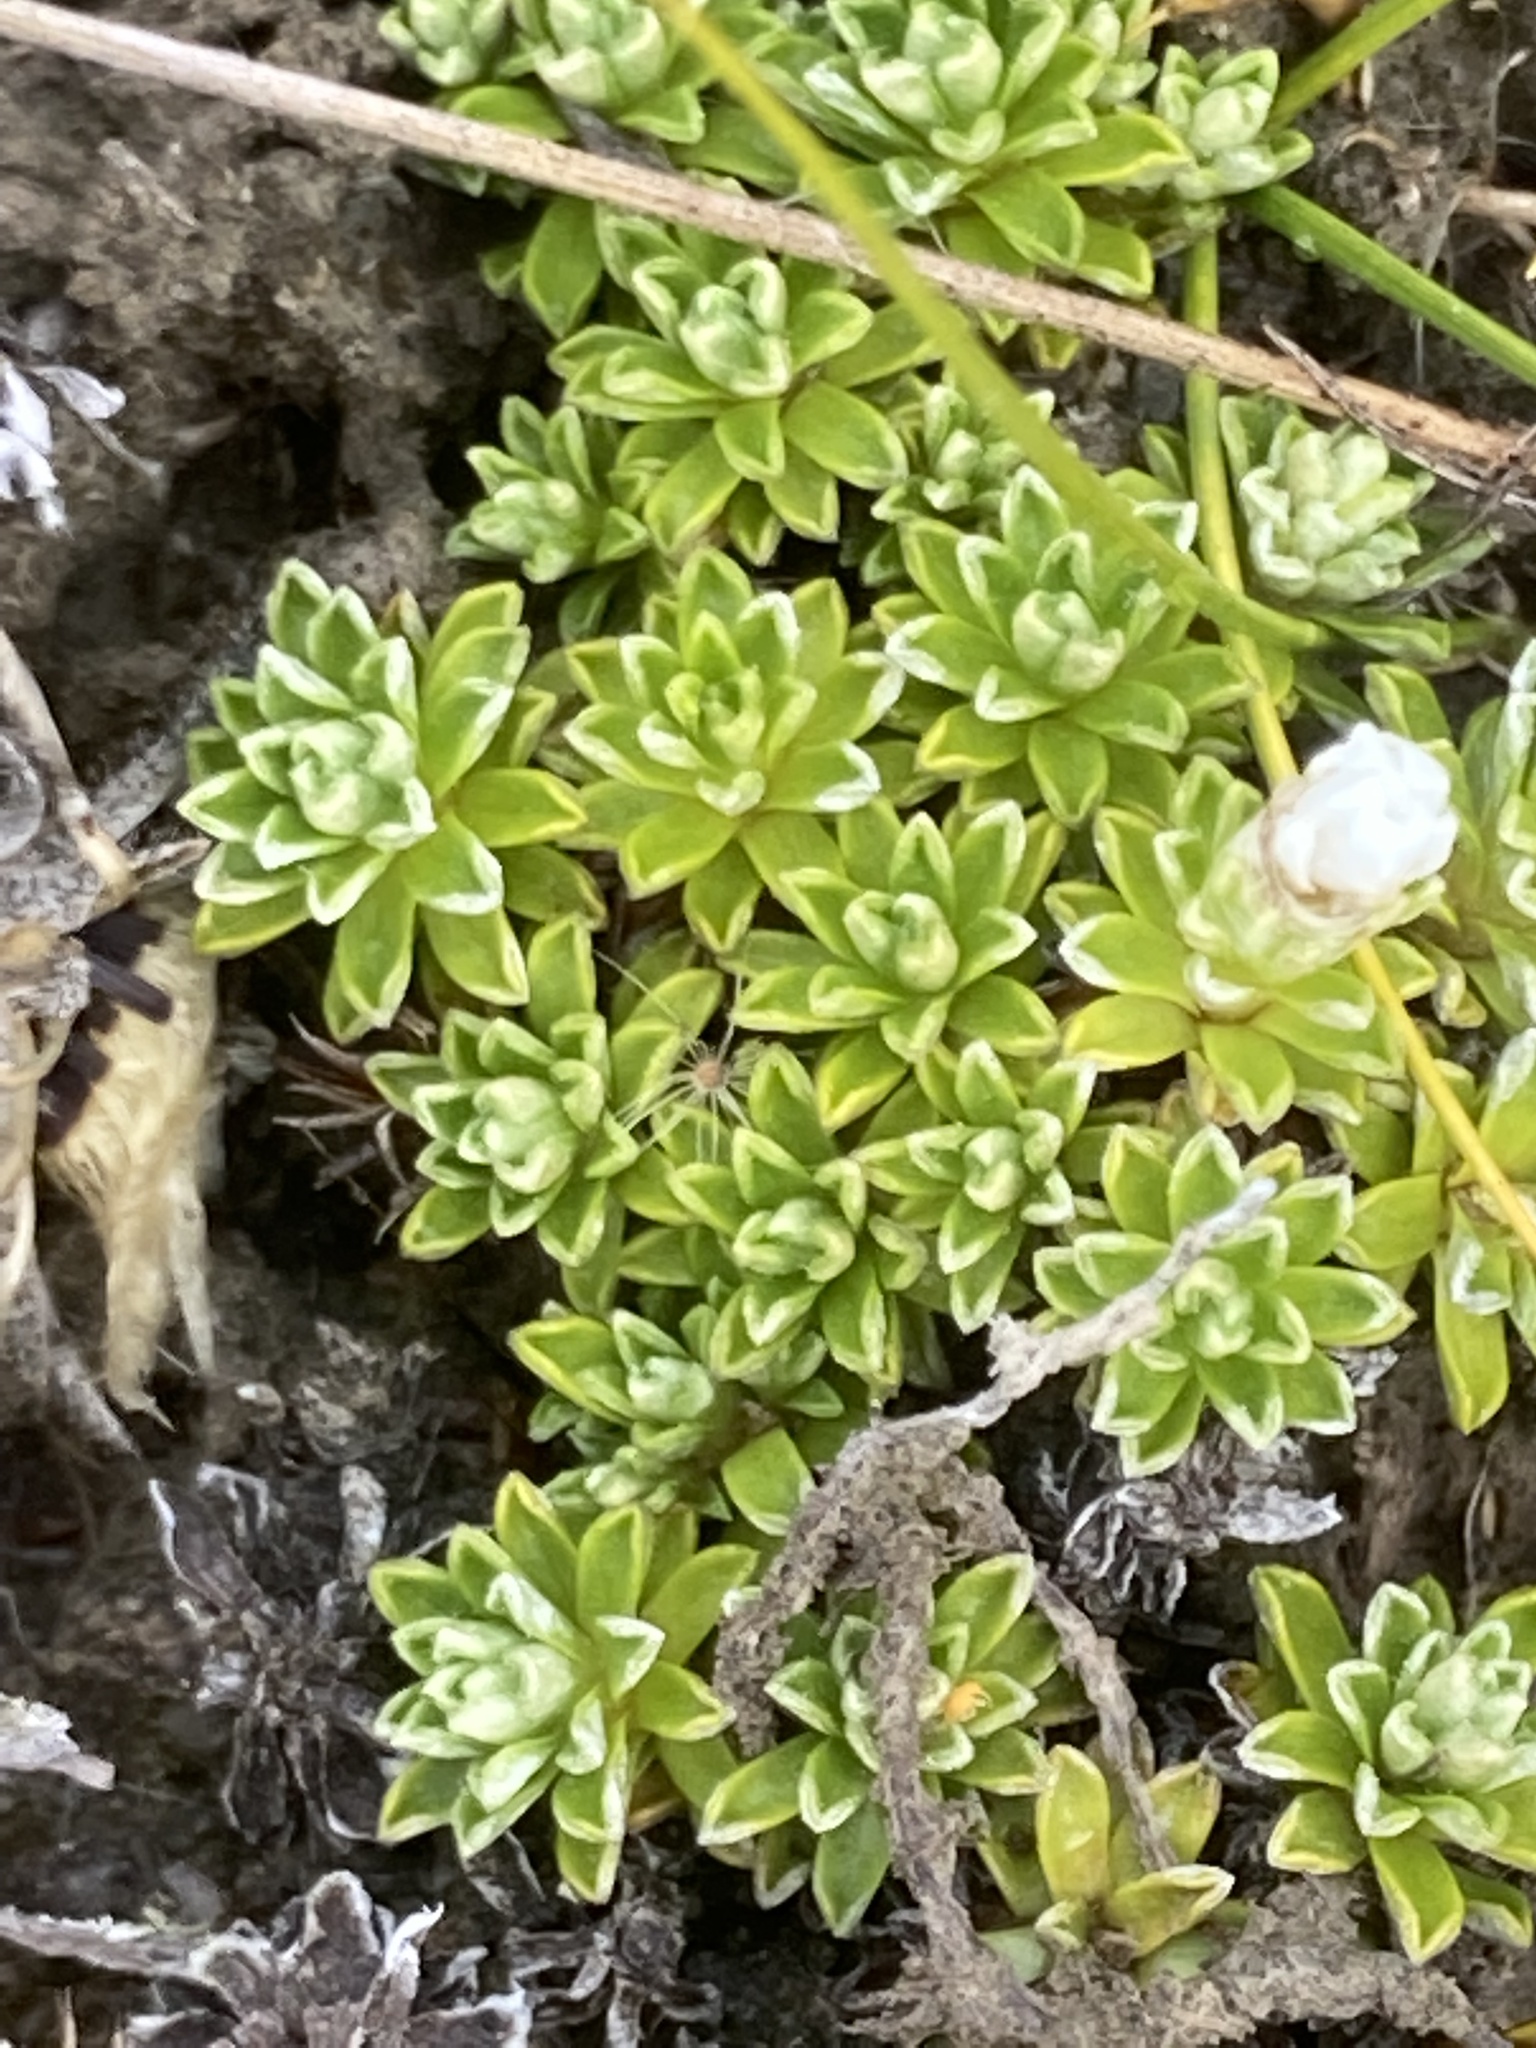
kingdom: Plantae
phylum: Tracheophyta
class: Magnoliopsida
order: Asterales
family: Asteraceae
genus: Raoulia
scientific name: Raoulia subsericea
